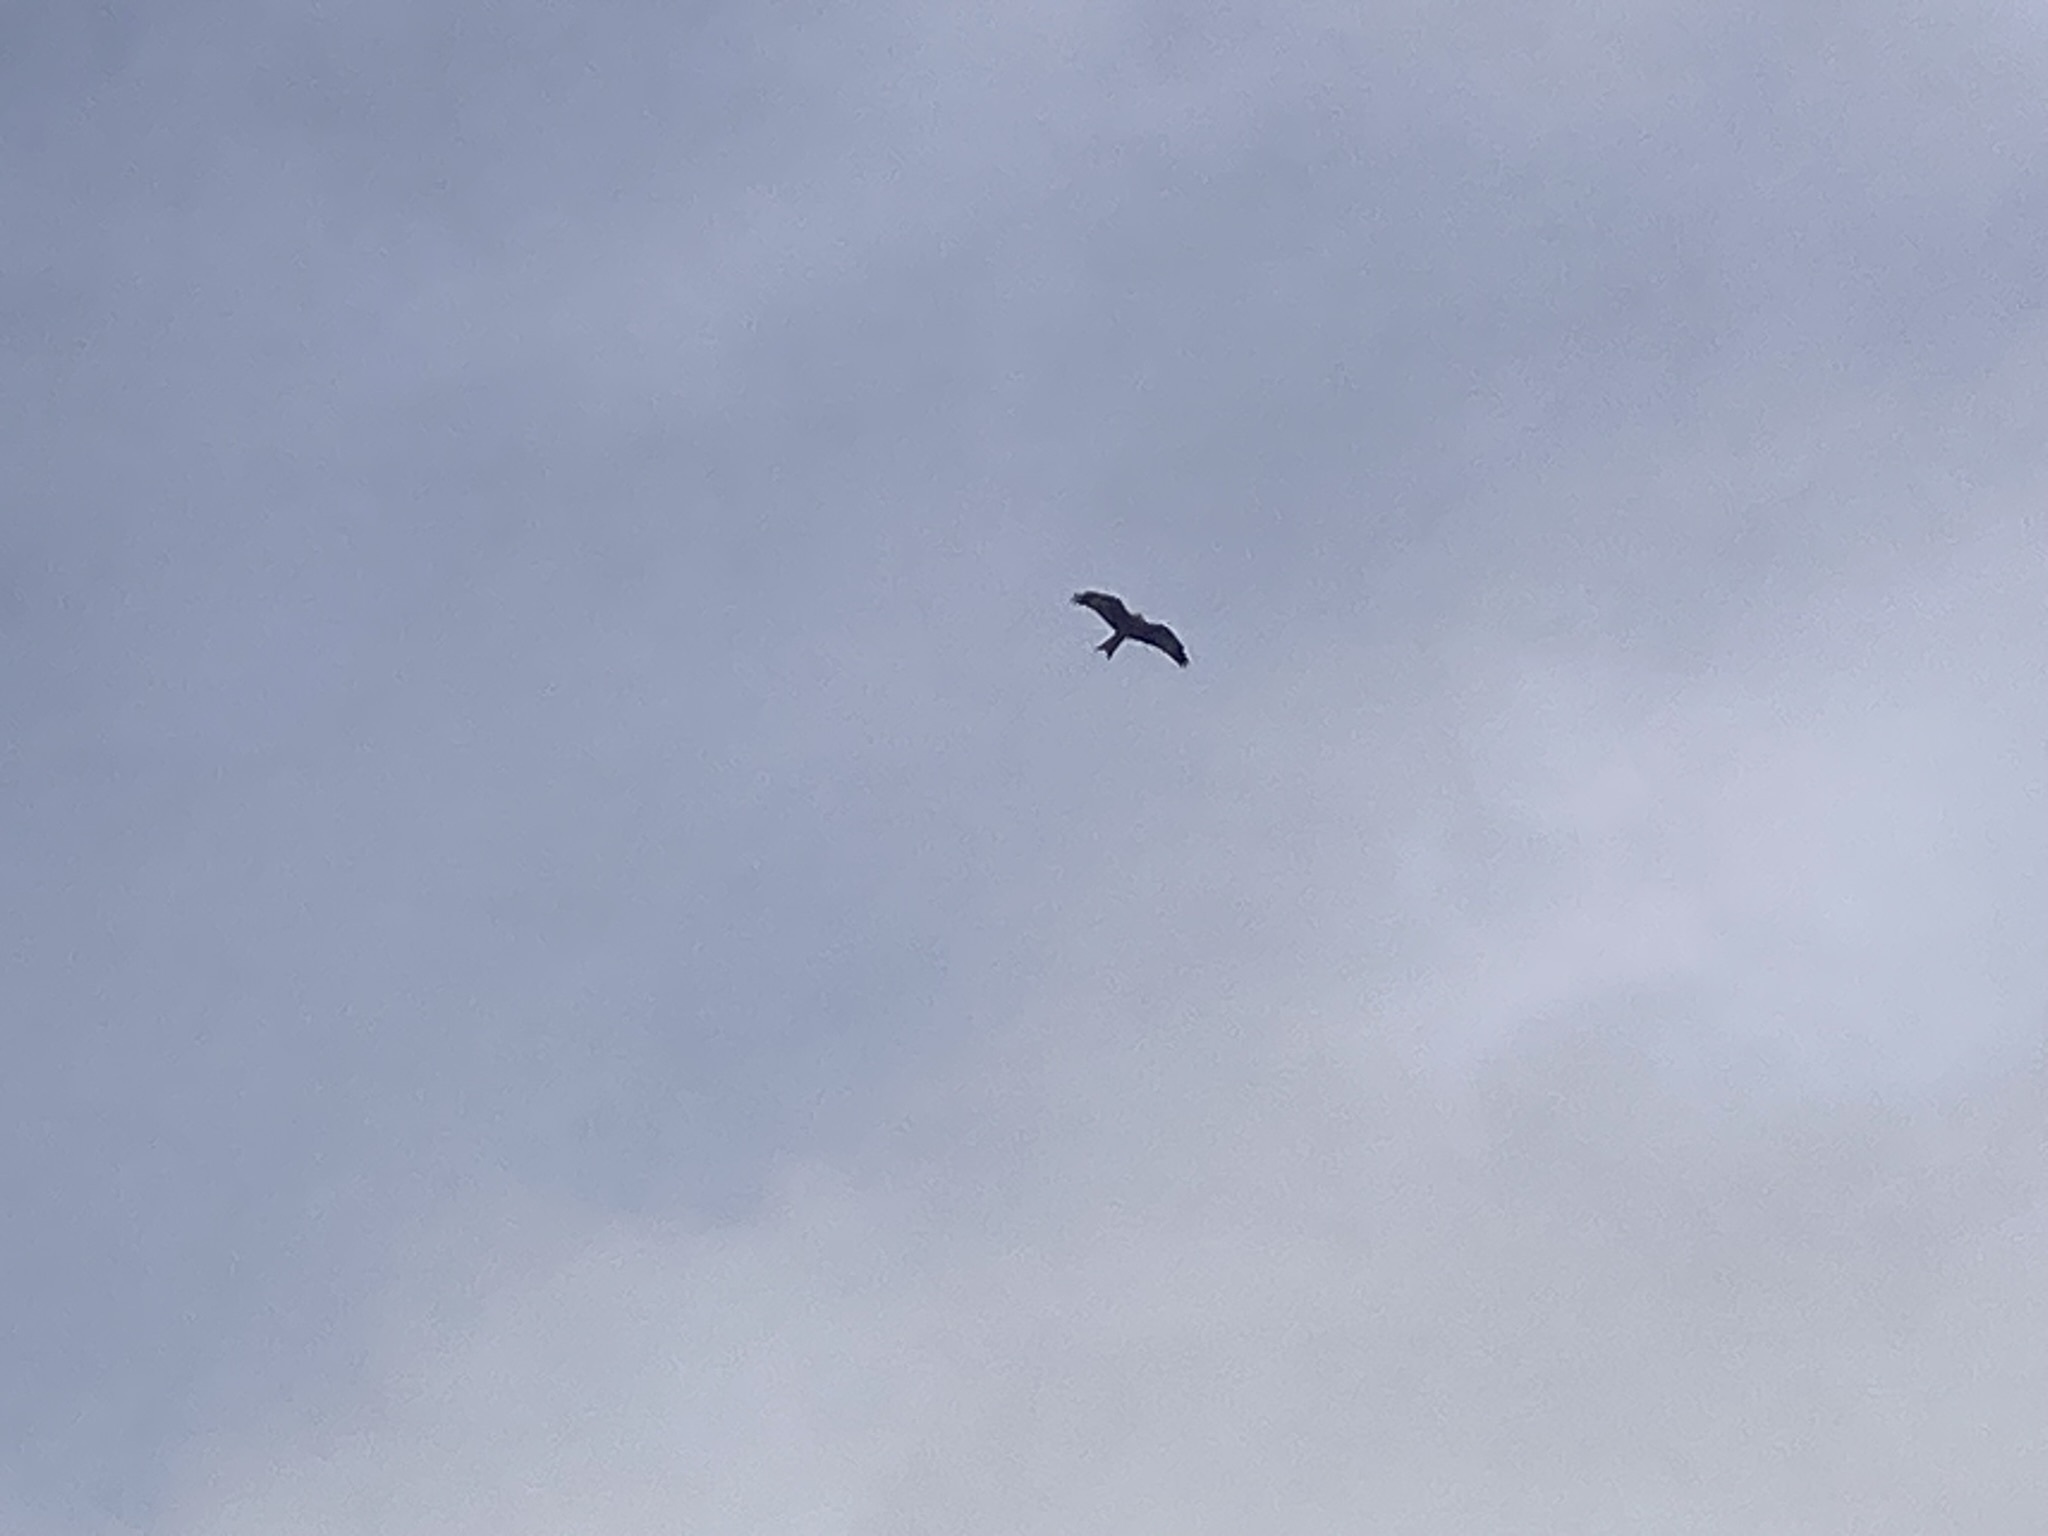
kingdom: Animalia
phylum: Chordata
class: Aves
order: Accipitriformes
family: Accipitridae
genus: Milvus
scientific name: Milvus milvus
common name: Red kite
